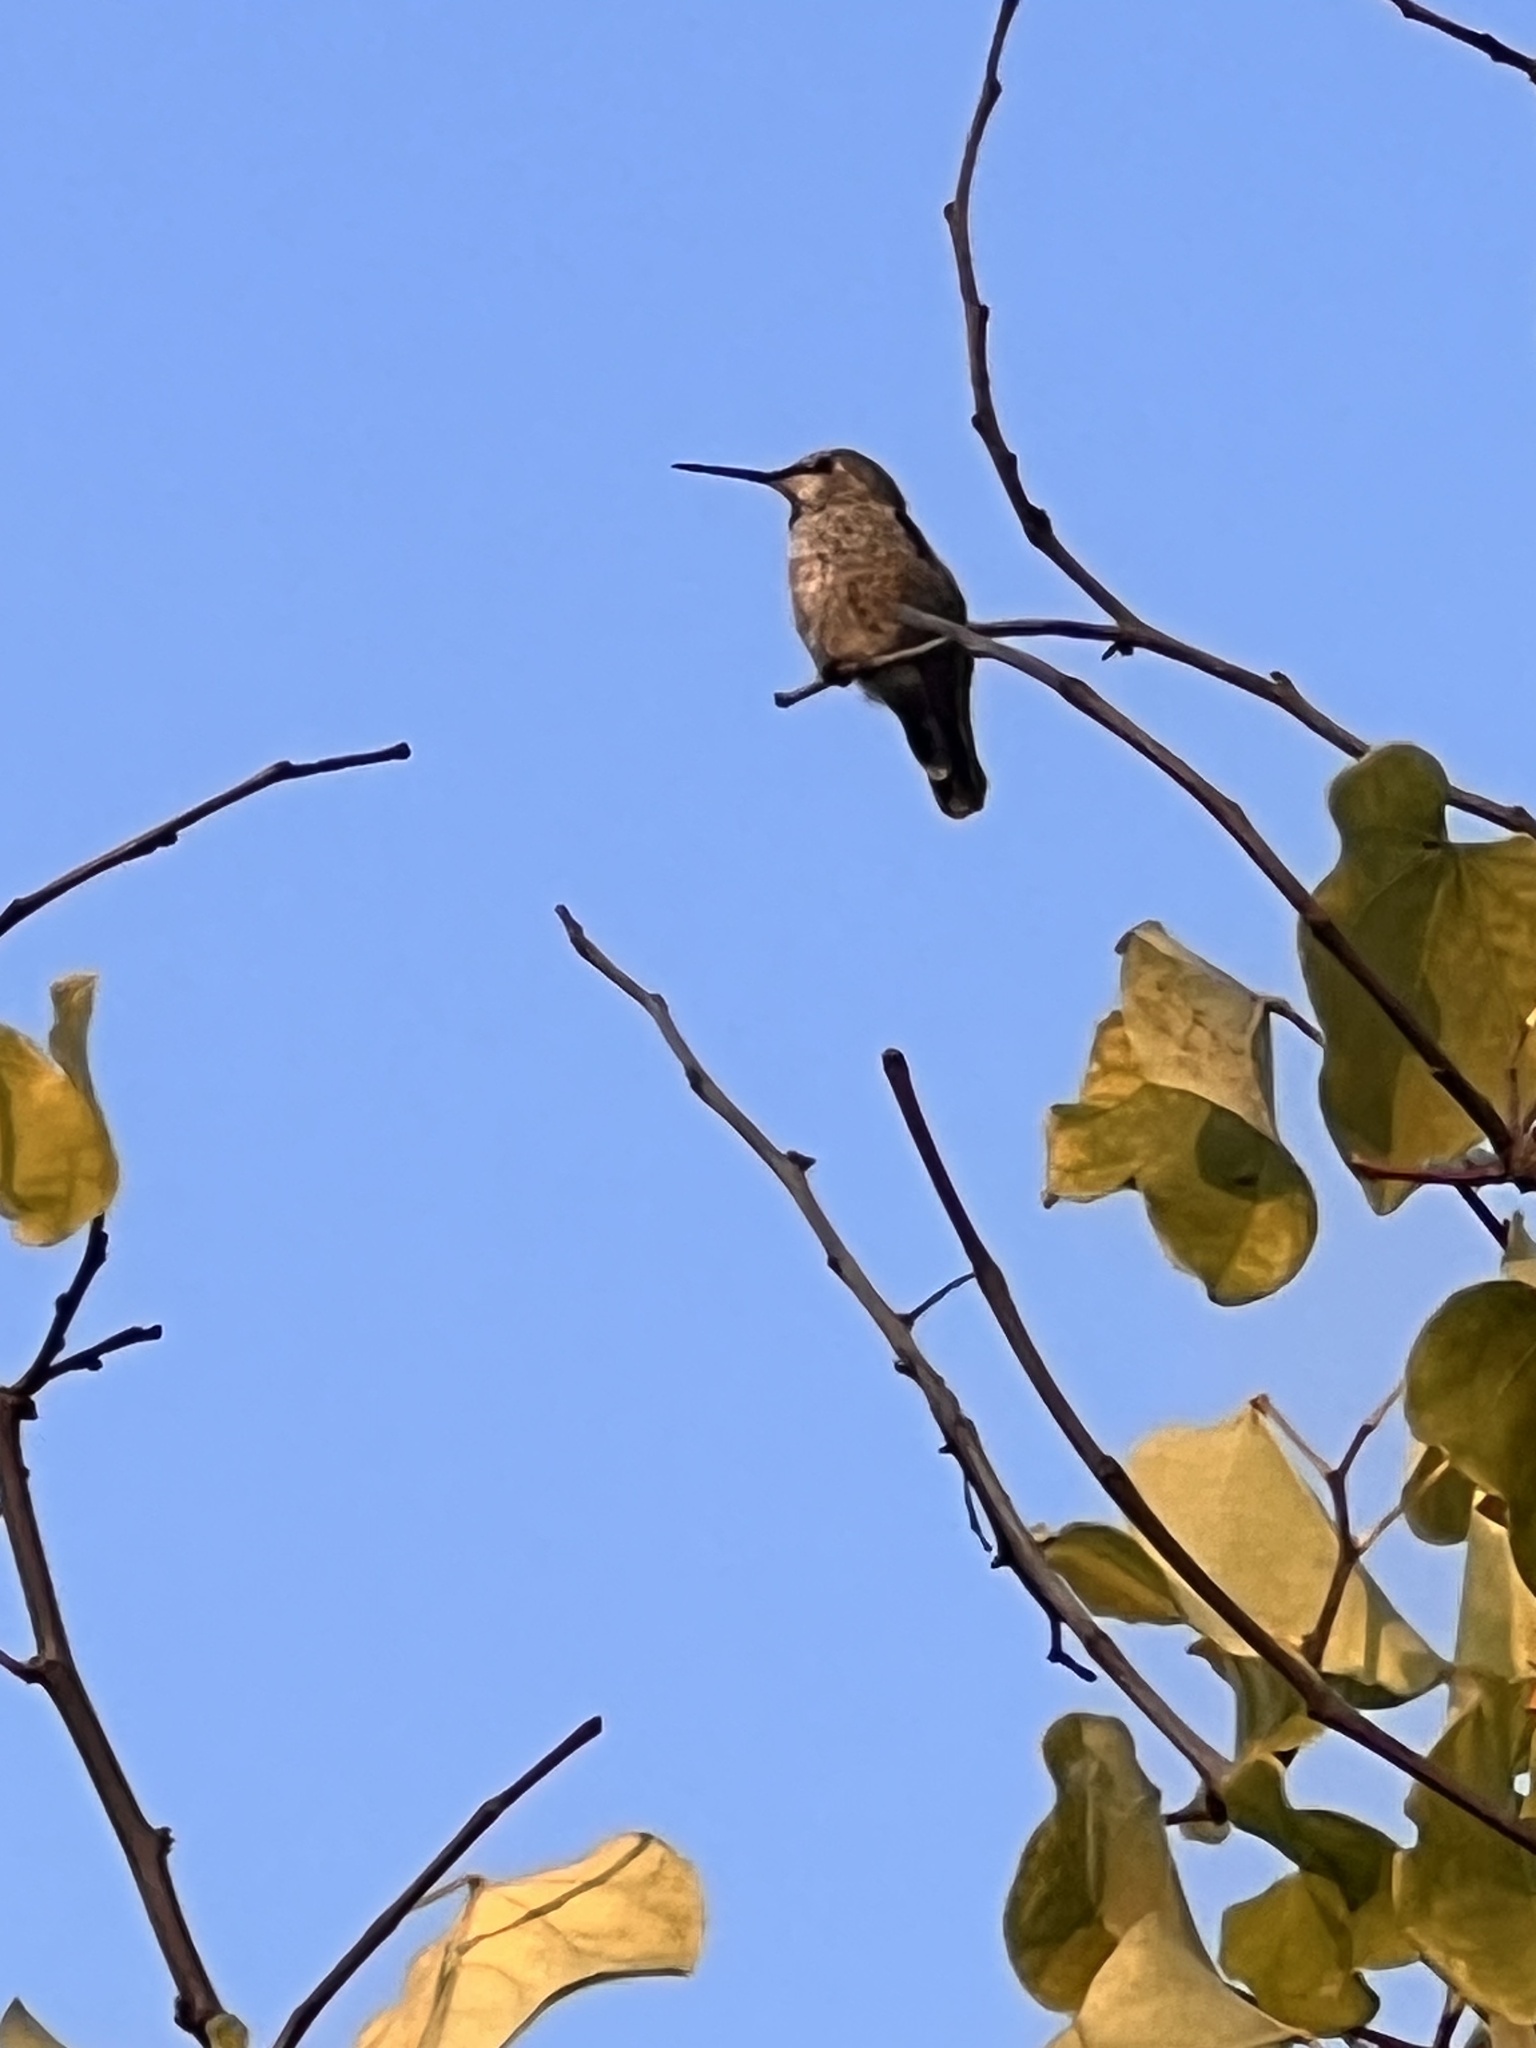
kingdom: Animalia
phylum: Chordata
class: Aves
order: Apodiformes
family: Trochilidae
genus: Calypte
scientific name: Calypte anna
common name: Anna's hummingbird
